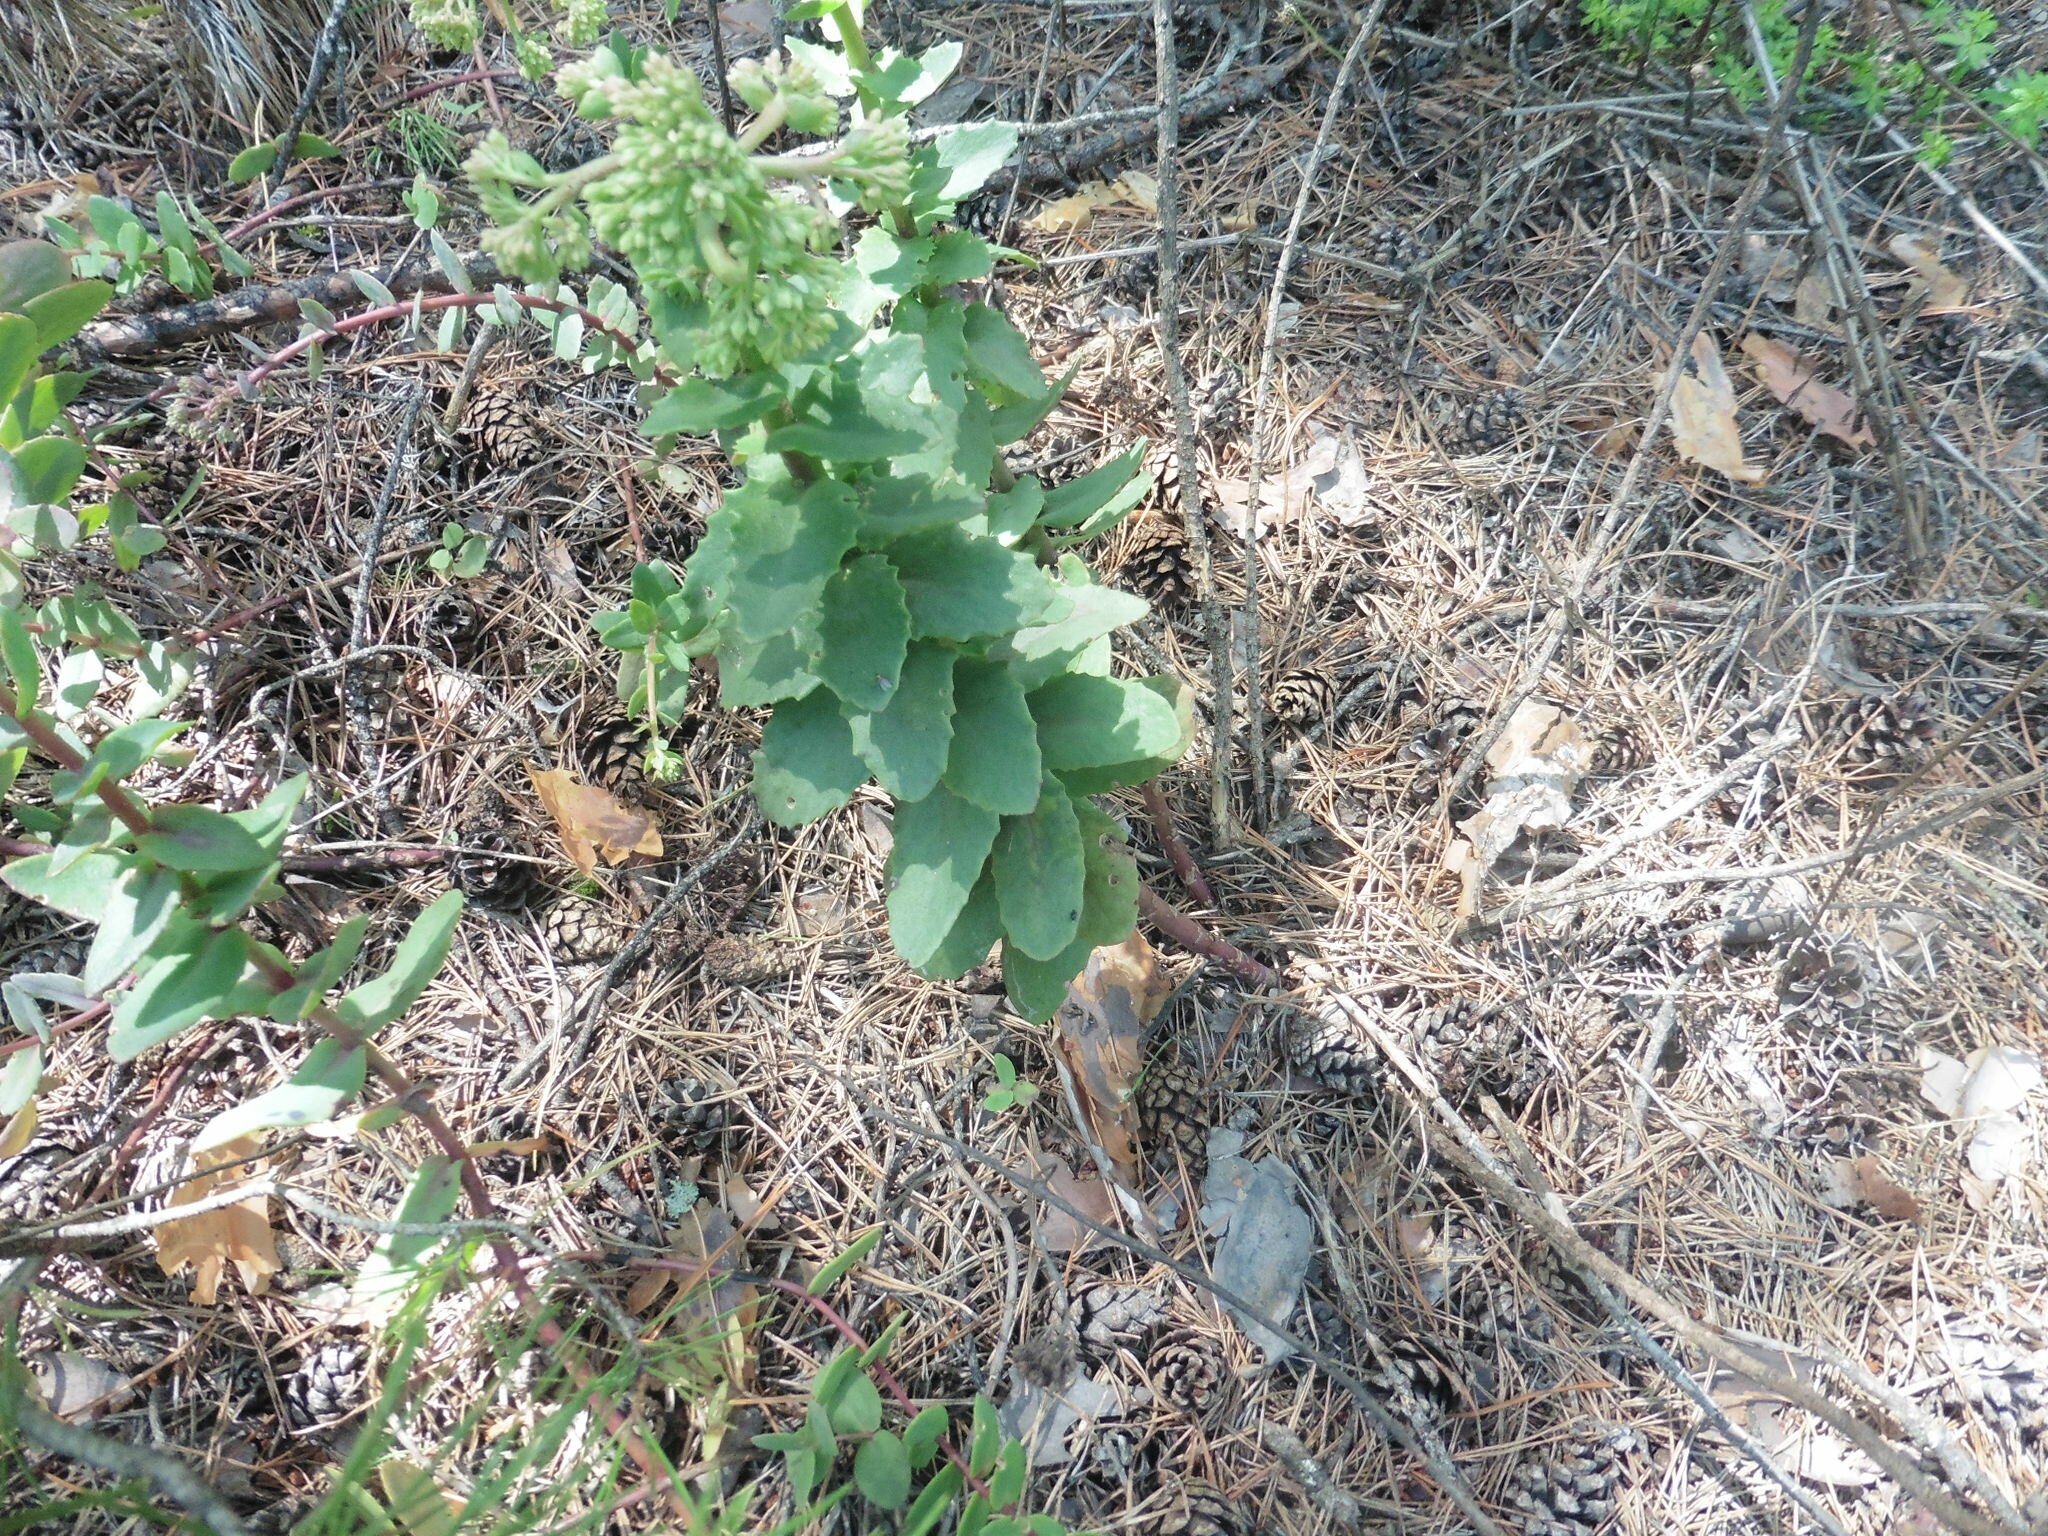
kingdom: Plantae
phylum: Tracheophyta
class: Magnoliopsida
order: Saxifragales
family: Crassulaceae
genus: Hylotelephium
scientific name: Hylotelephium telephium
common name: Live-forever
